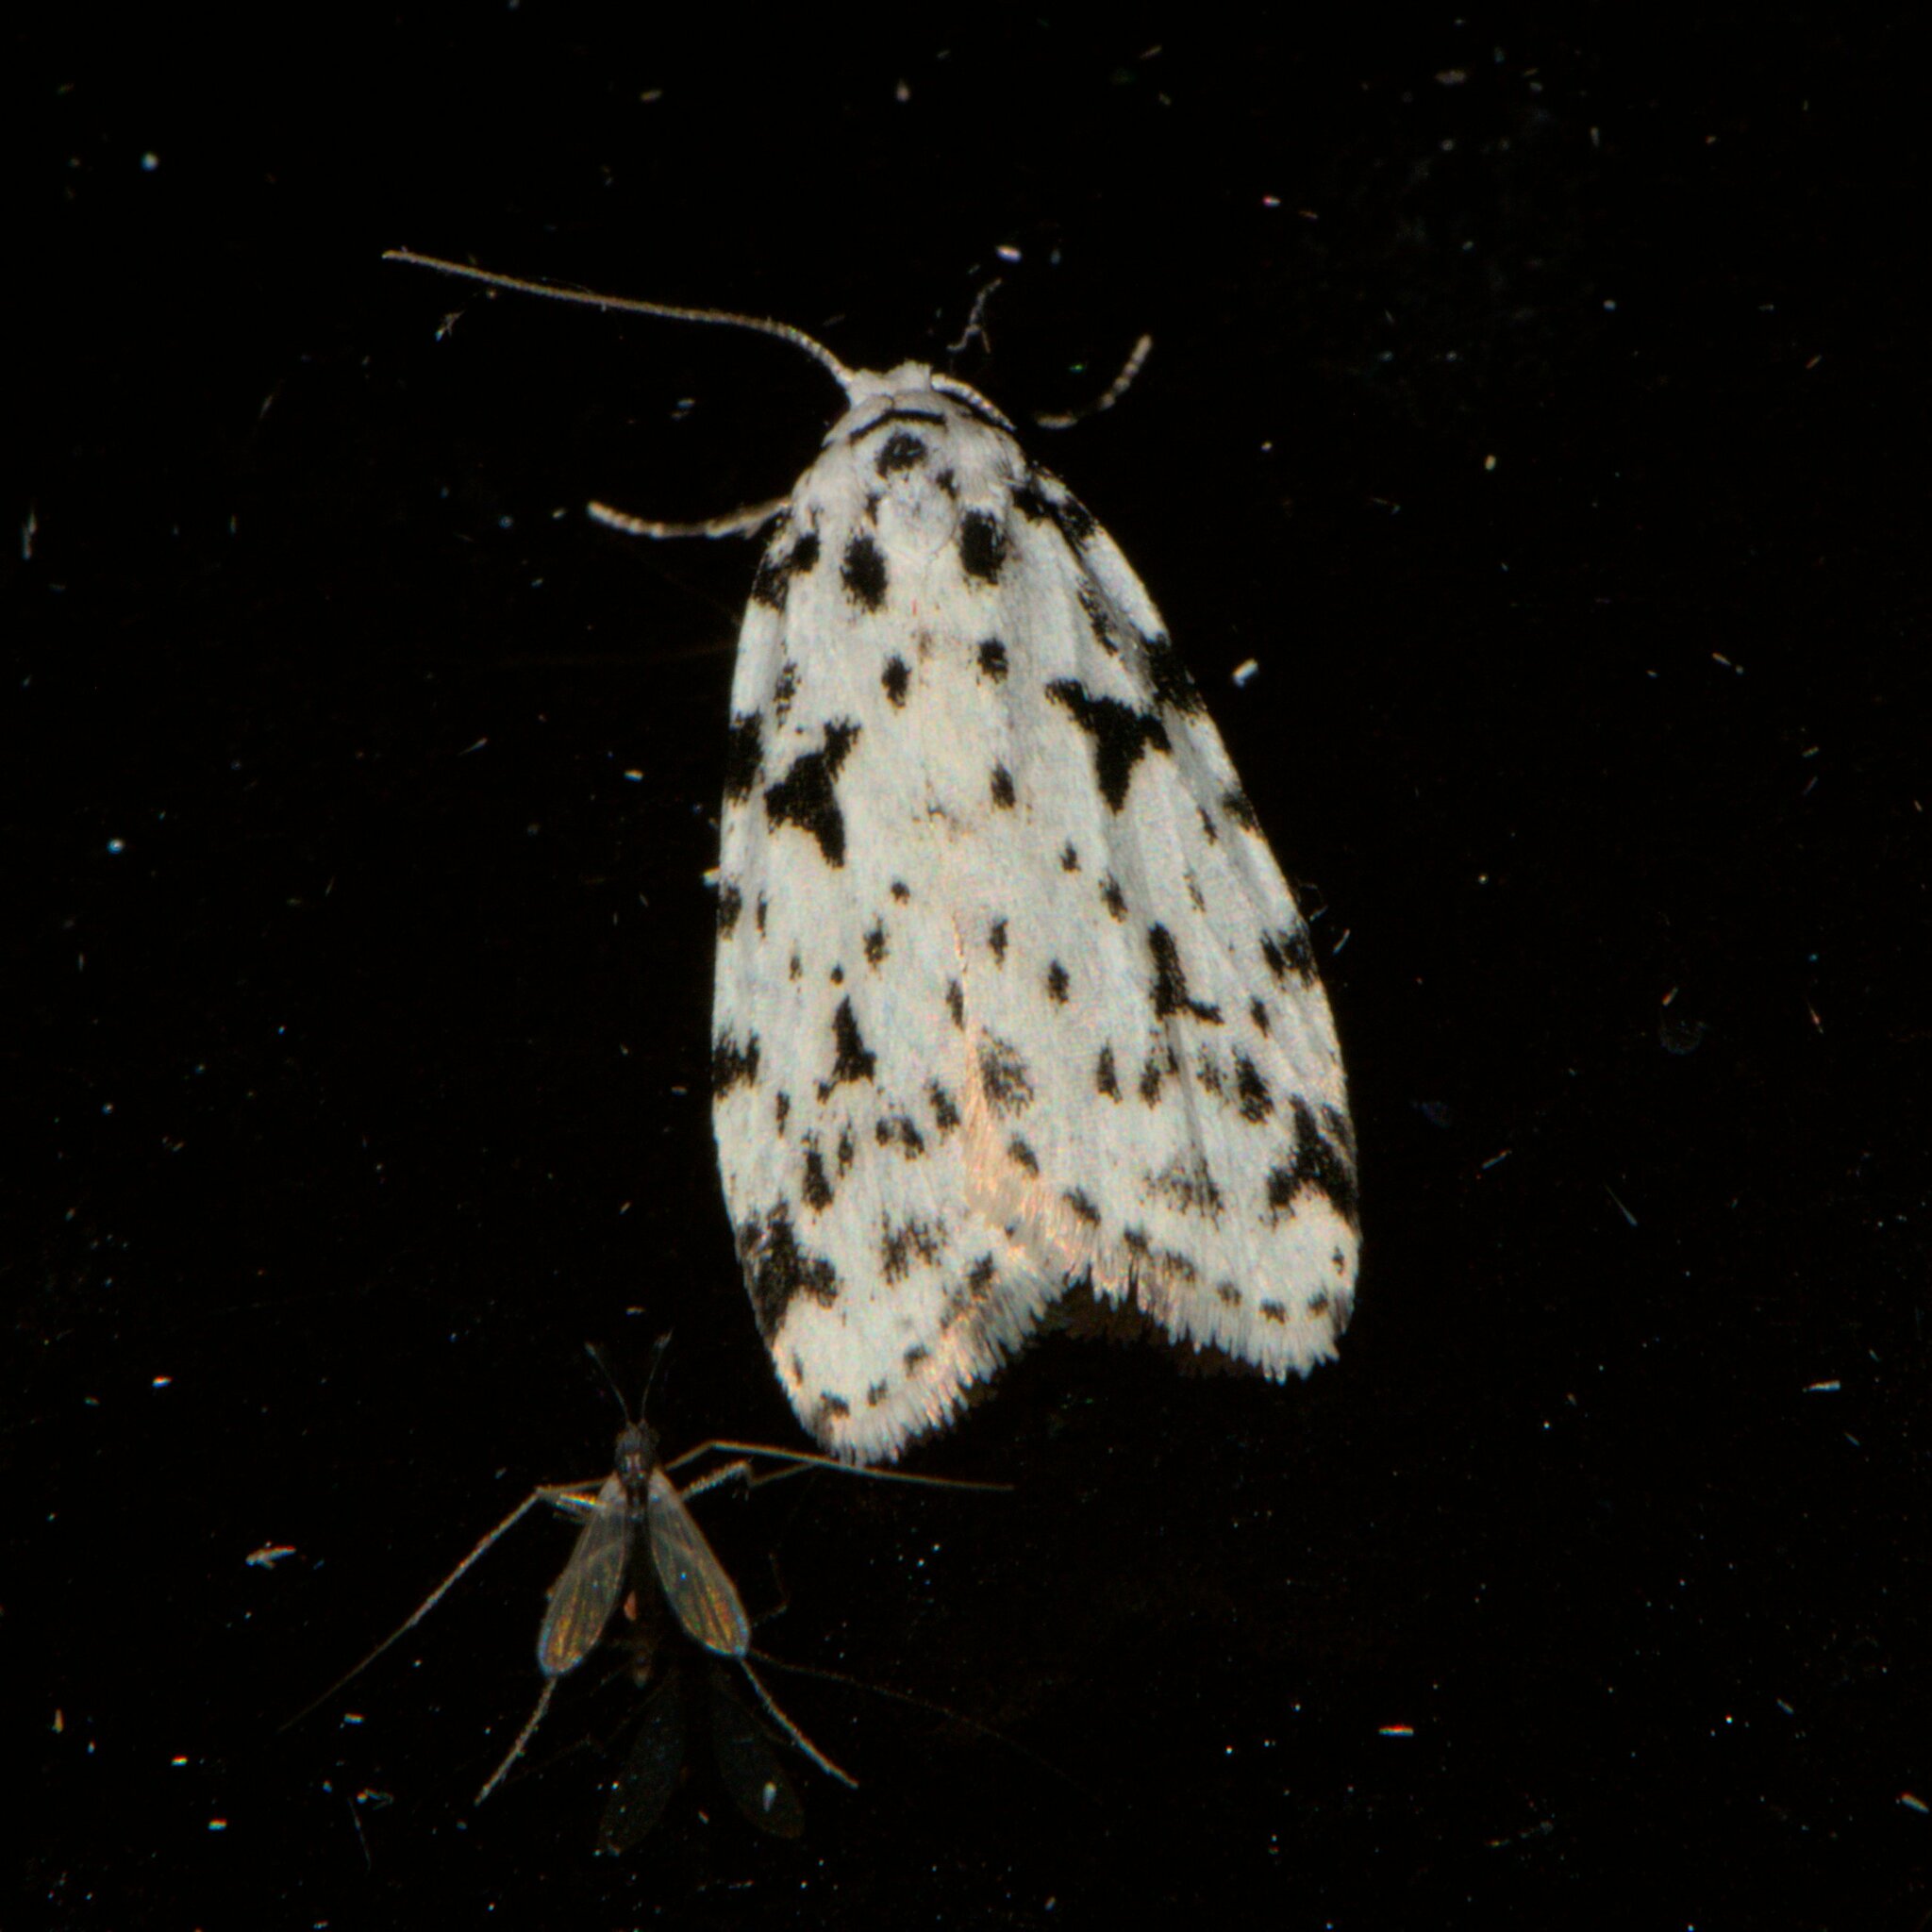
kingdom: Animalia
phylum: Arthropoda
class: Insecta
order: Lepidoptera
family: Erebidae
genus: Siccia
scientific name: Siccia sagittifera
